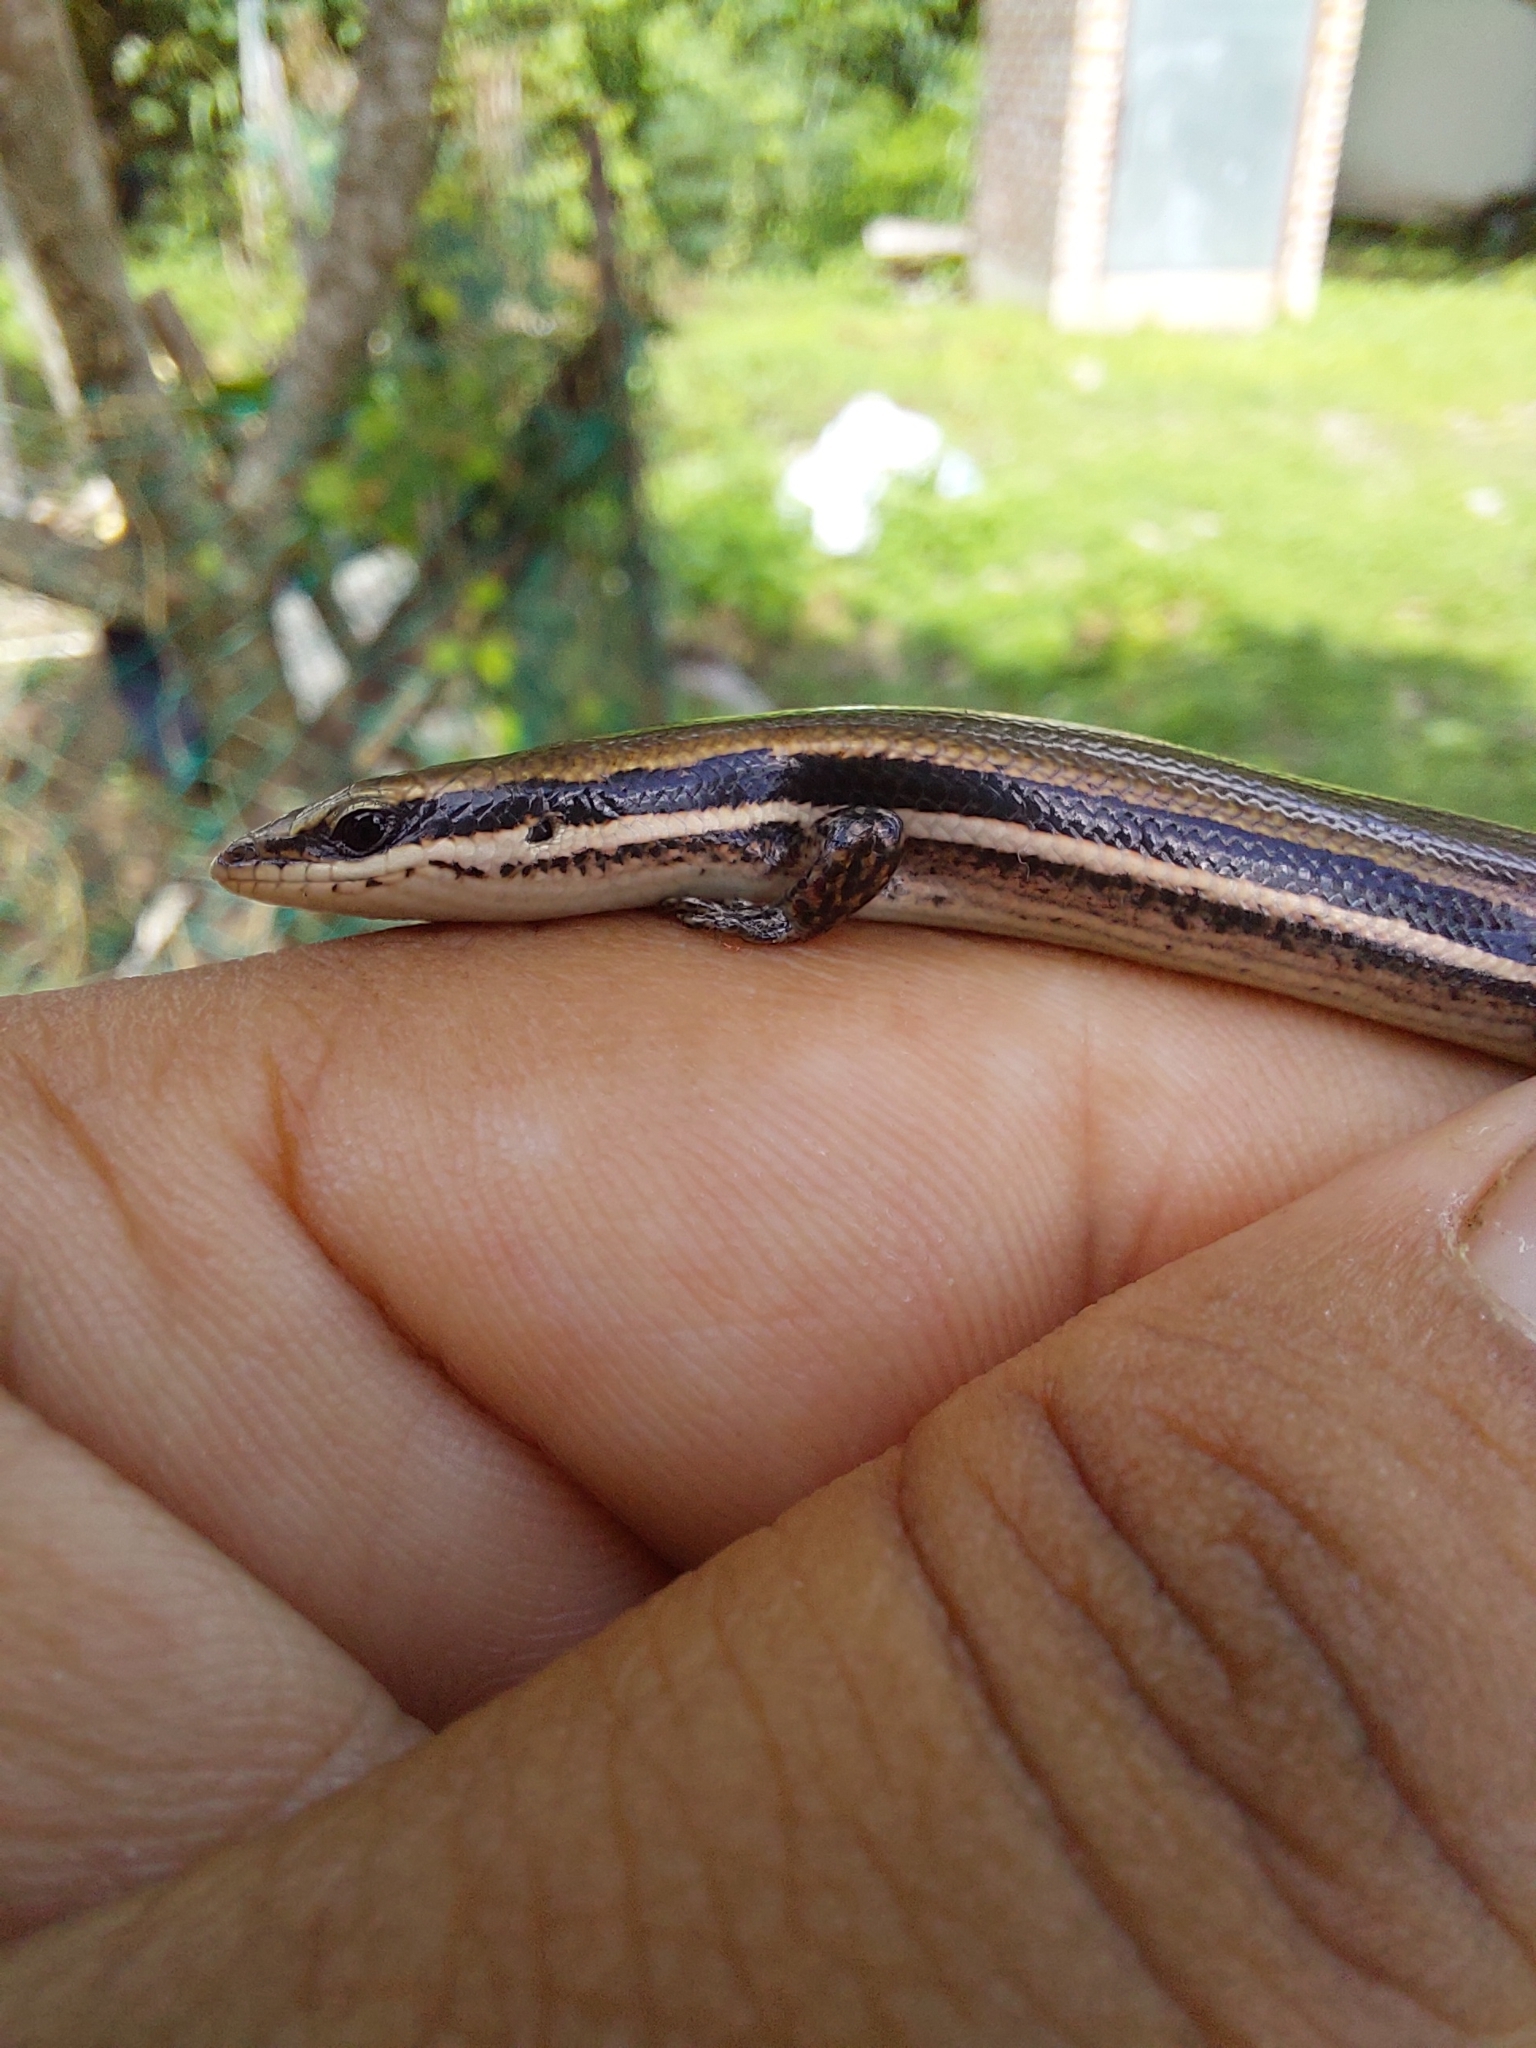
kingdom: Animalia
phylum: Chordata
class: Squamata
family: Scincidae
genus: Marisora
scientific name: Marisora lineola
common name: Mayan skink
